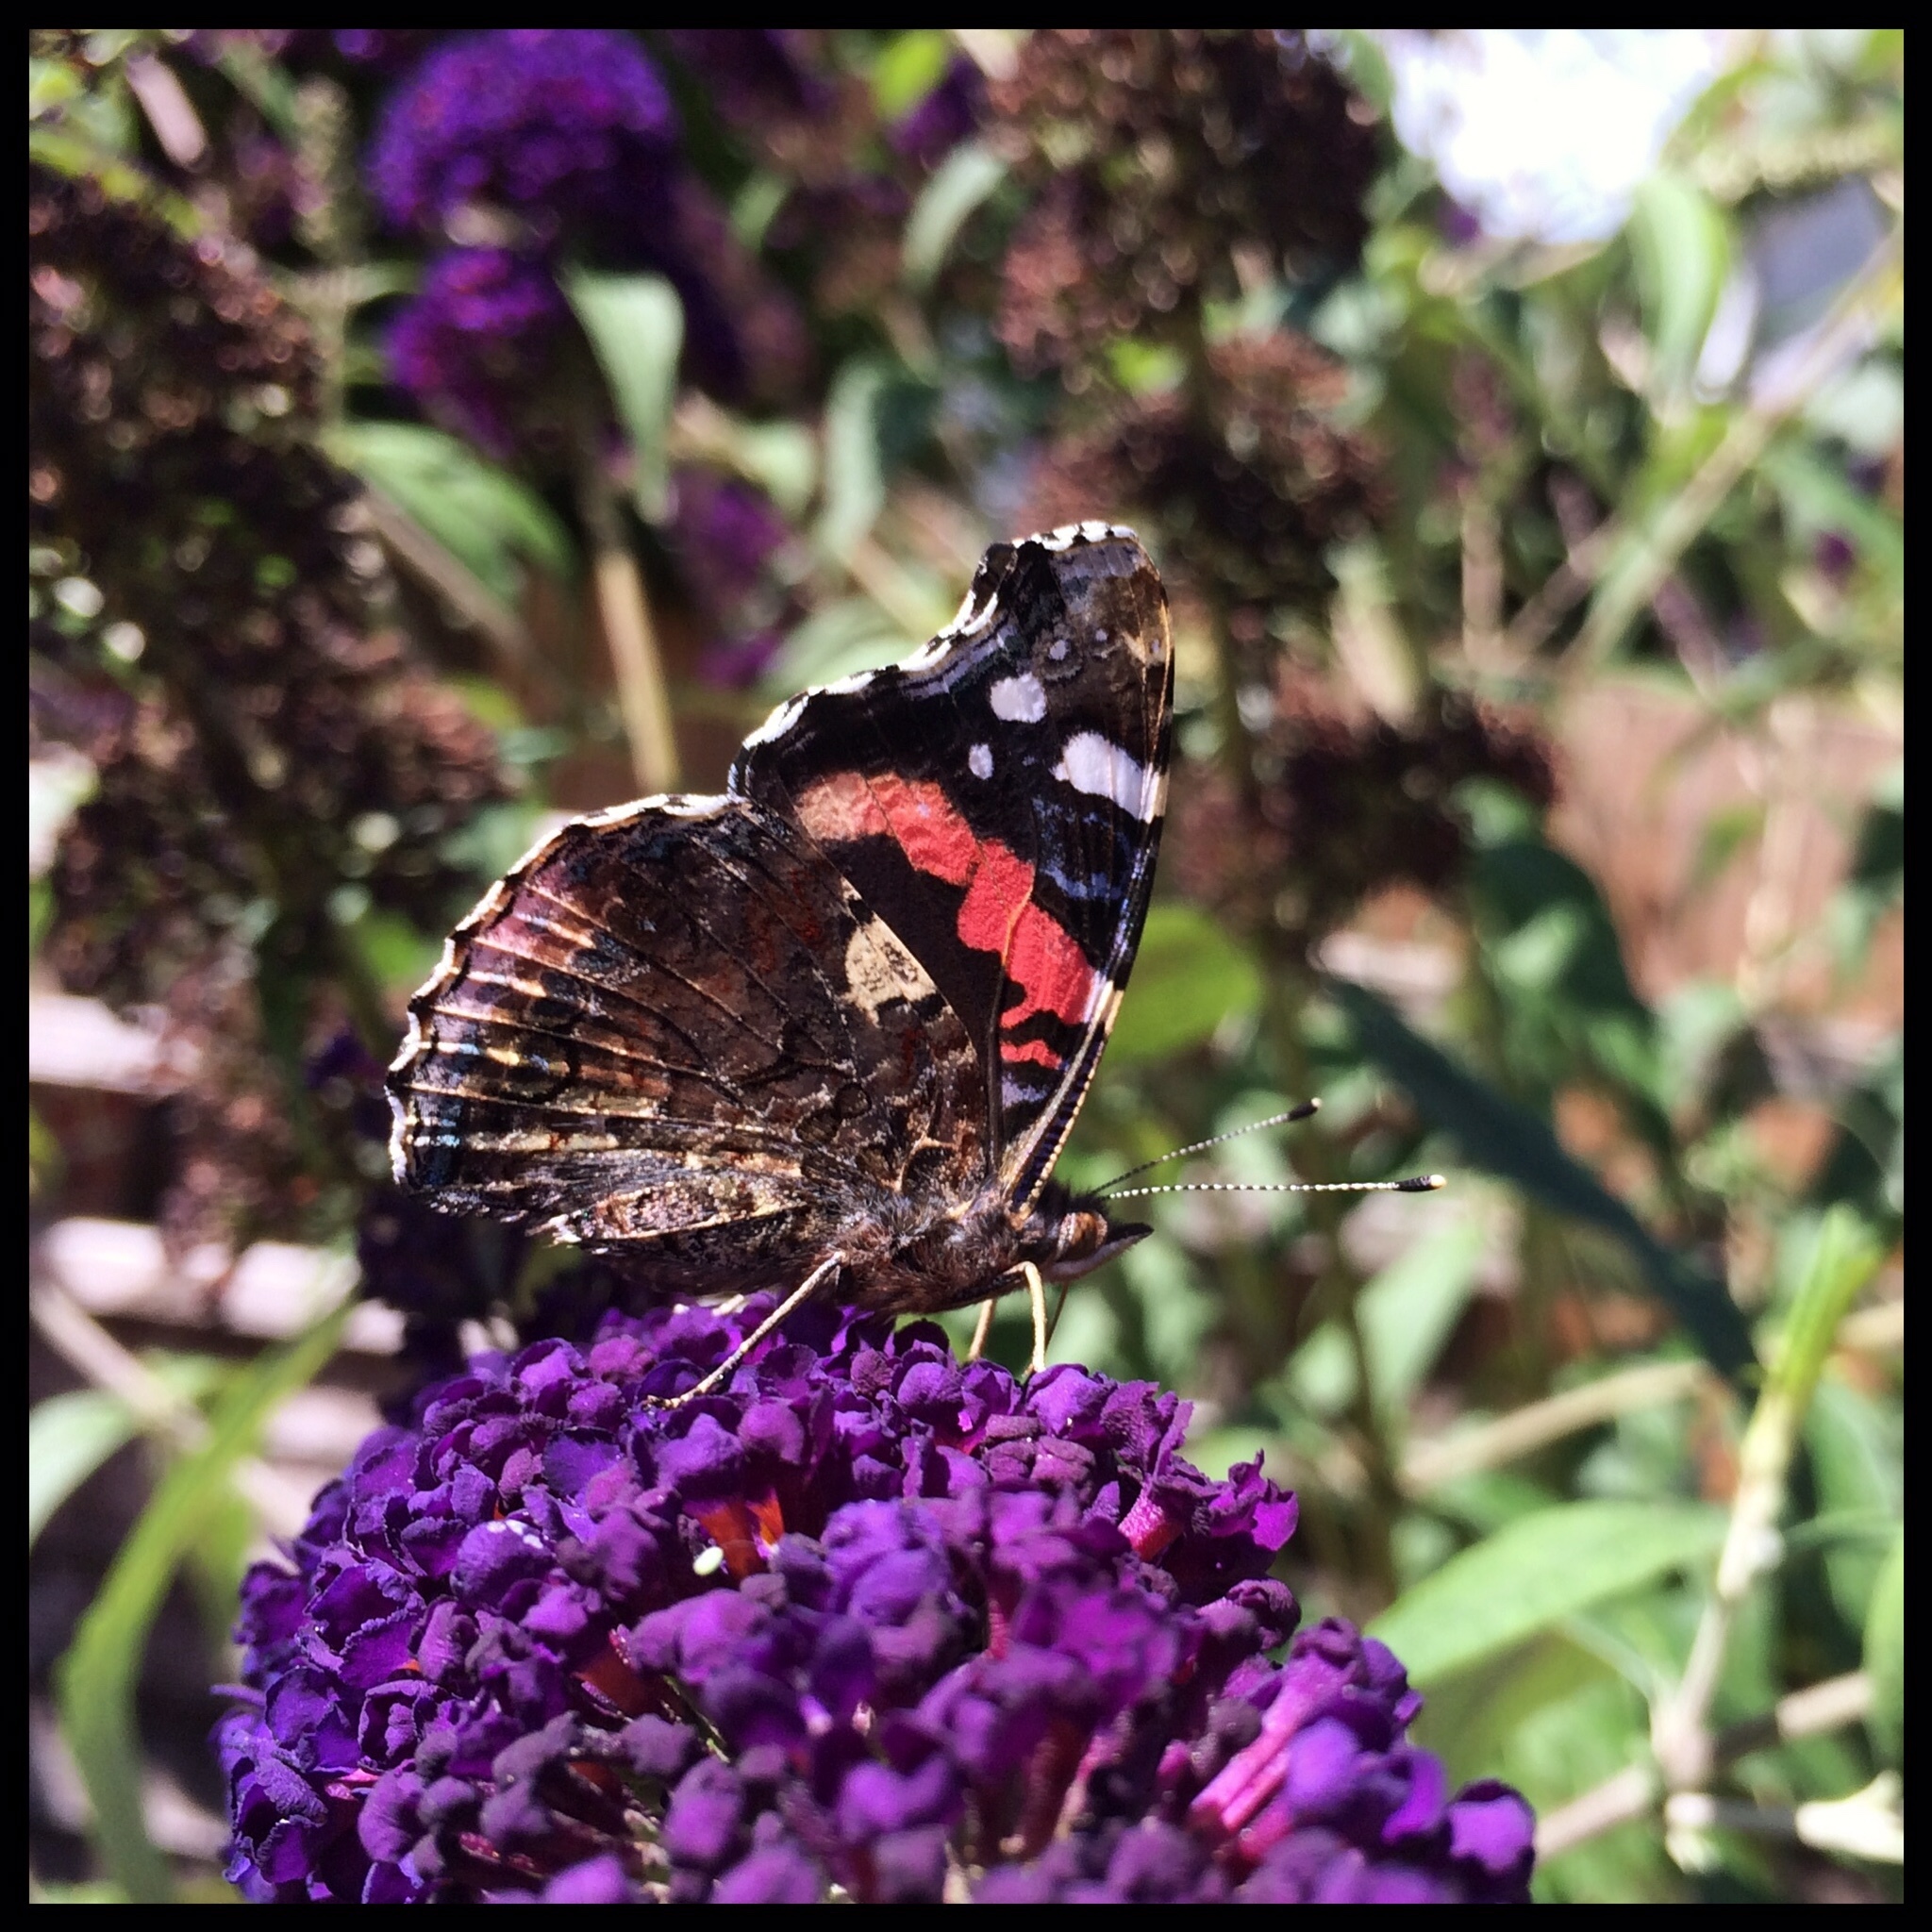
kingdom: Animalia
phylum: Arthropoda
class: Insecta
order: Lepidoptera
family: Nymphalidae
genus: Vanessa
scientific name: Vanessa atalanta
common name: Red admiral
